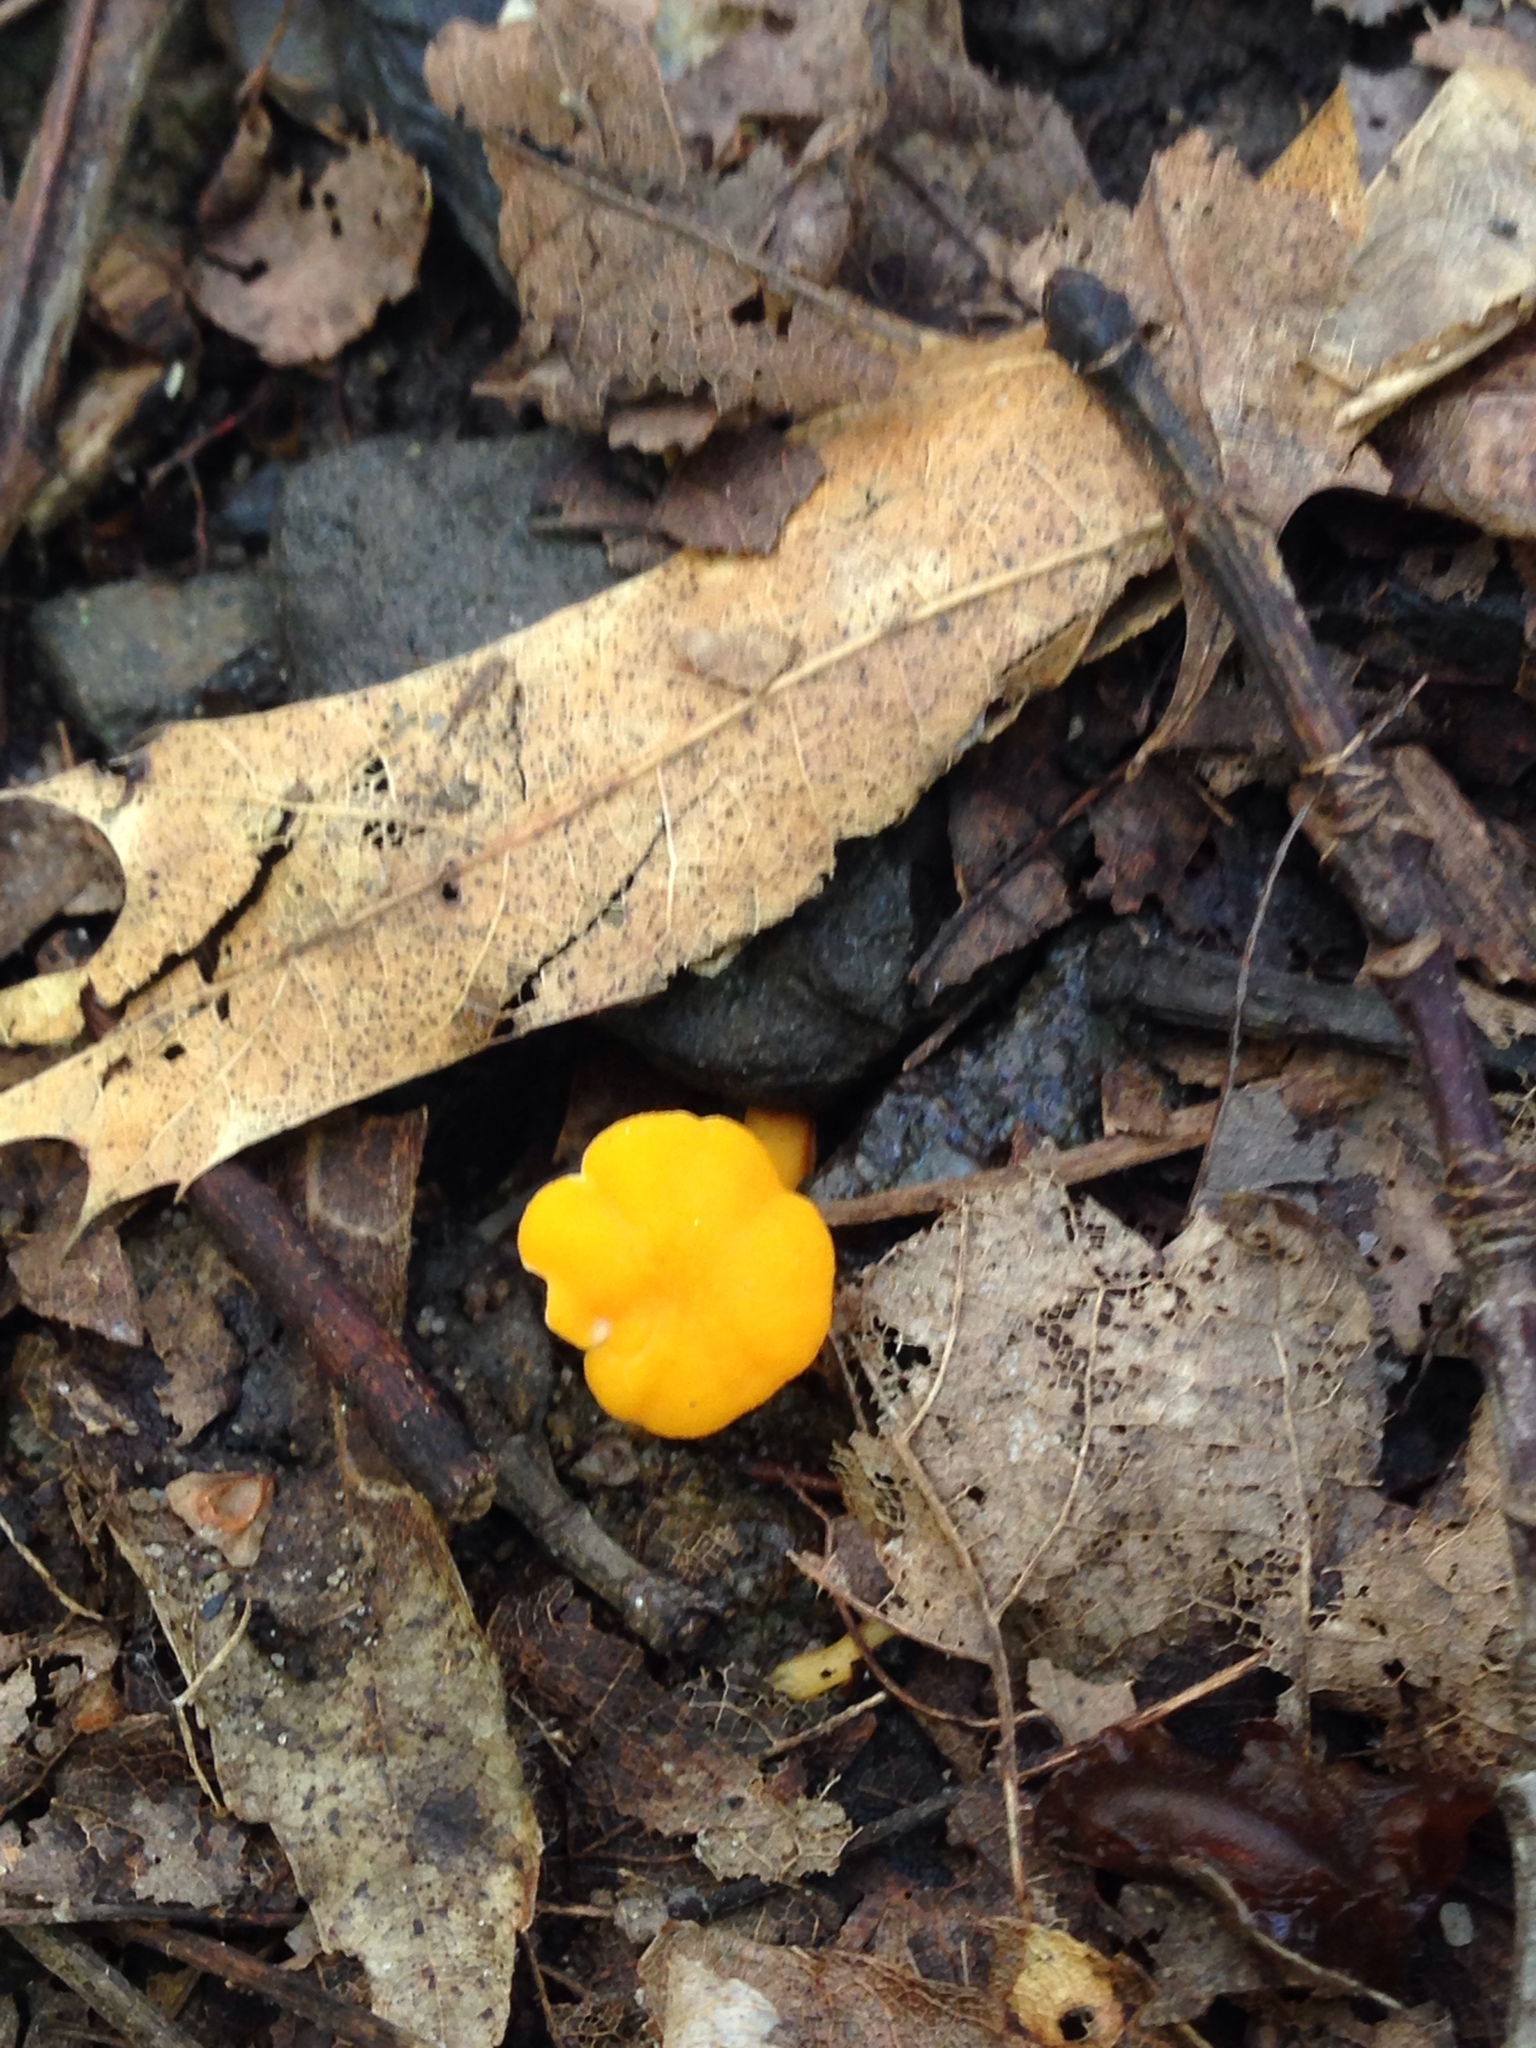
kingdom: Fungi
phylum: Basidiomycota
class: Agaricomycetes
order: Cantharellales
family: Hydnaceae
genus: Cantharellus
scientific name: Cantharellus minor
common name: Small chanterelle
